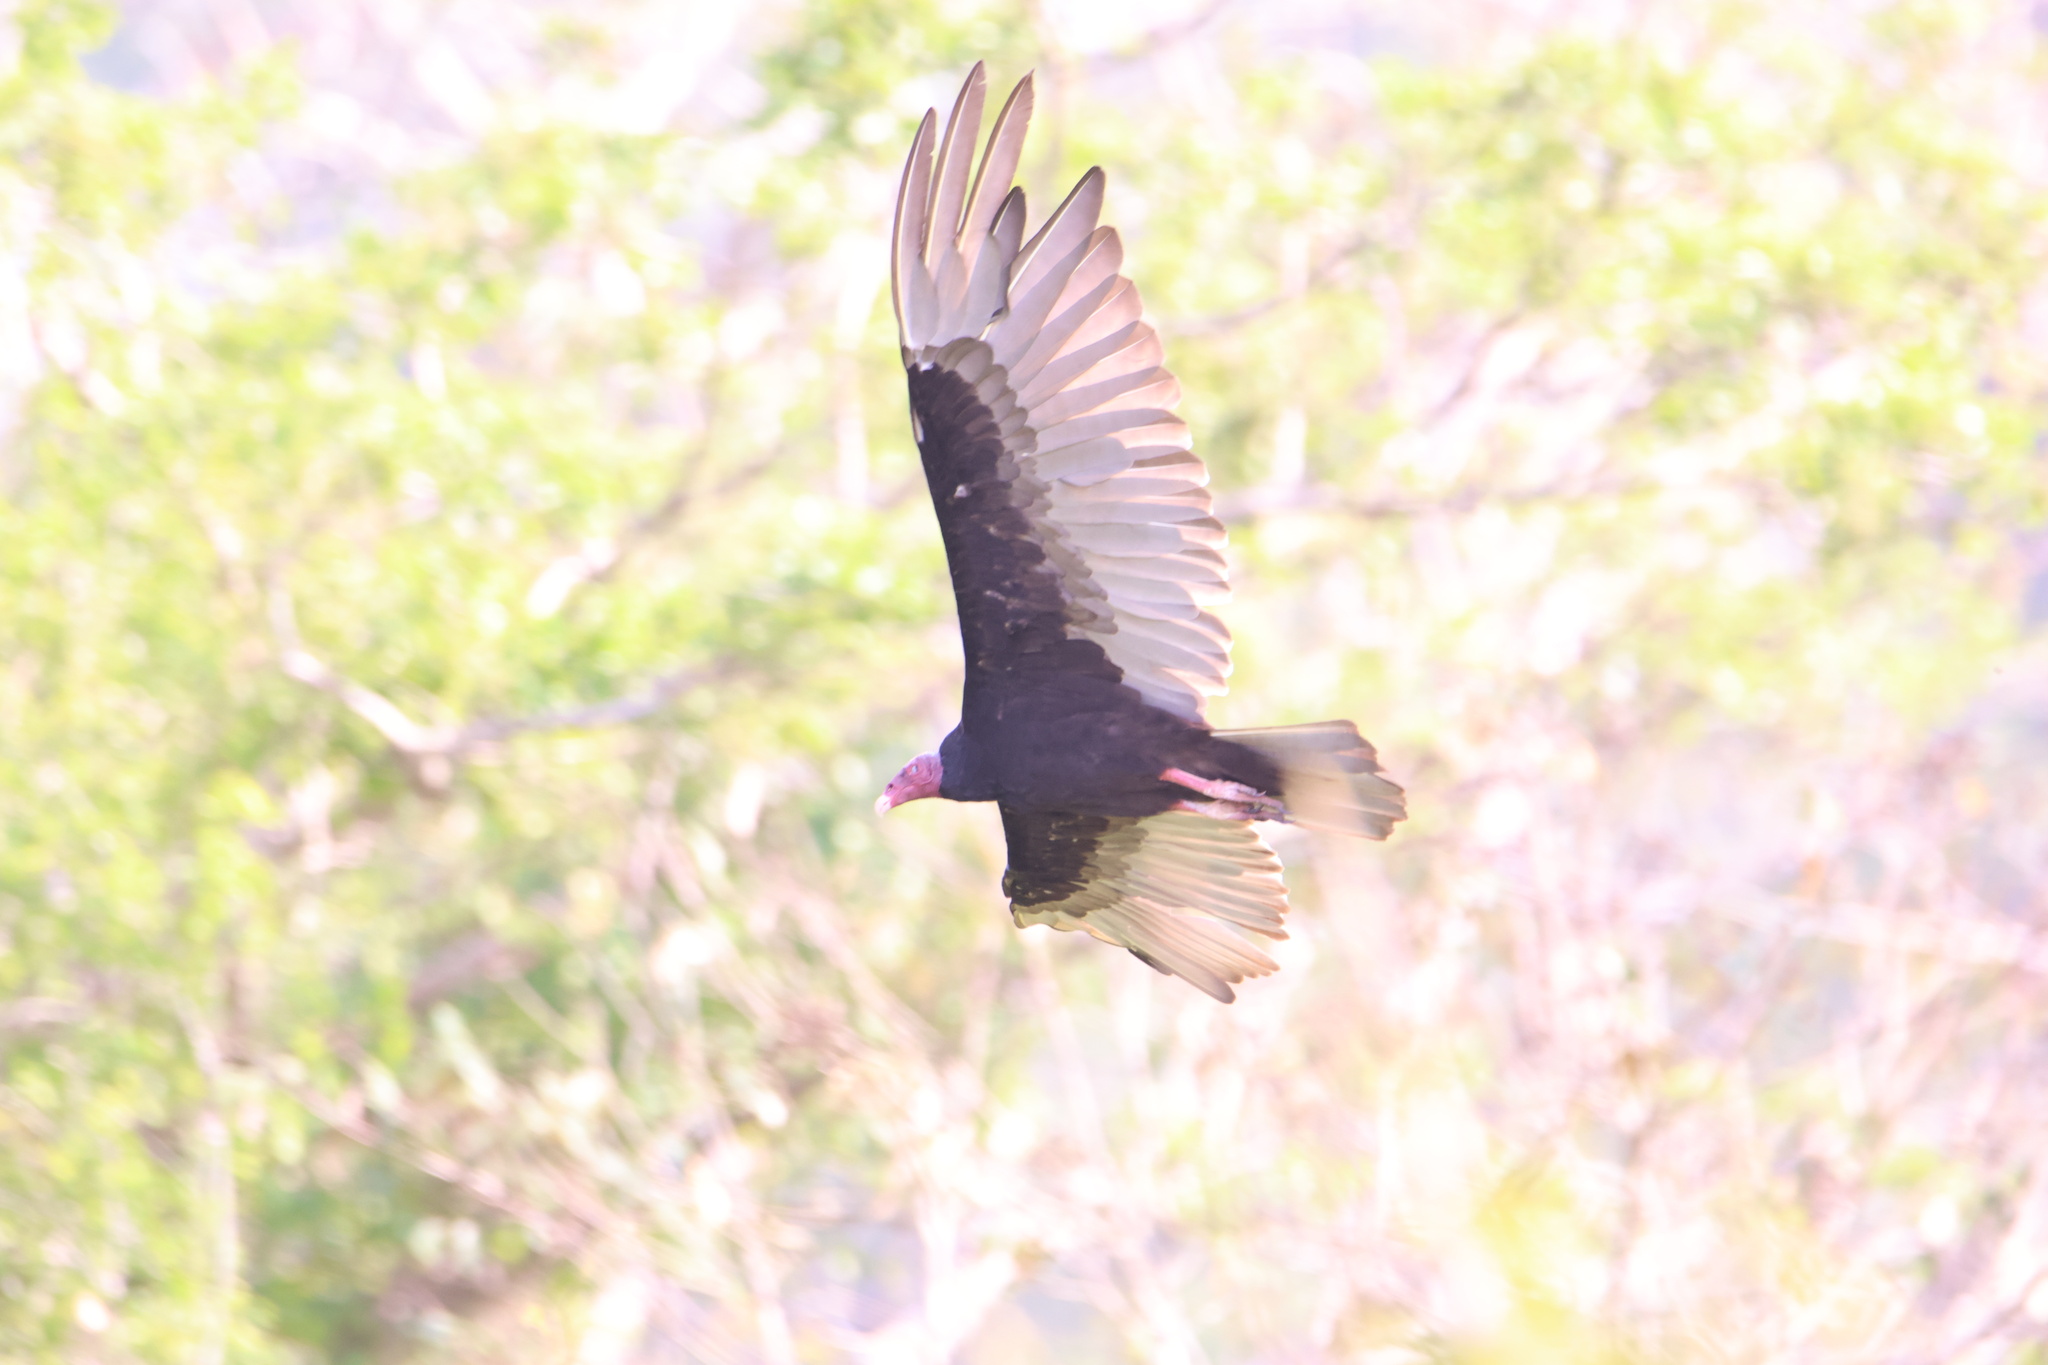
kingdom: Animalia
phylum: Chordata
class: Aves
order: Accipitriformes
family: Cathartidae
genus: Cathartes
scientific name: Cathartes aura
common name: Turkey vulture
